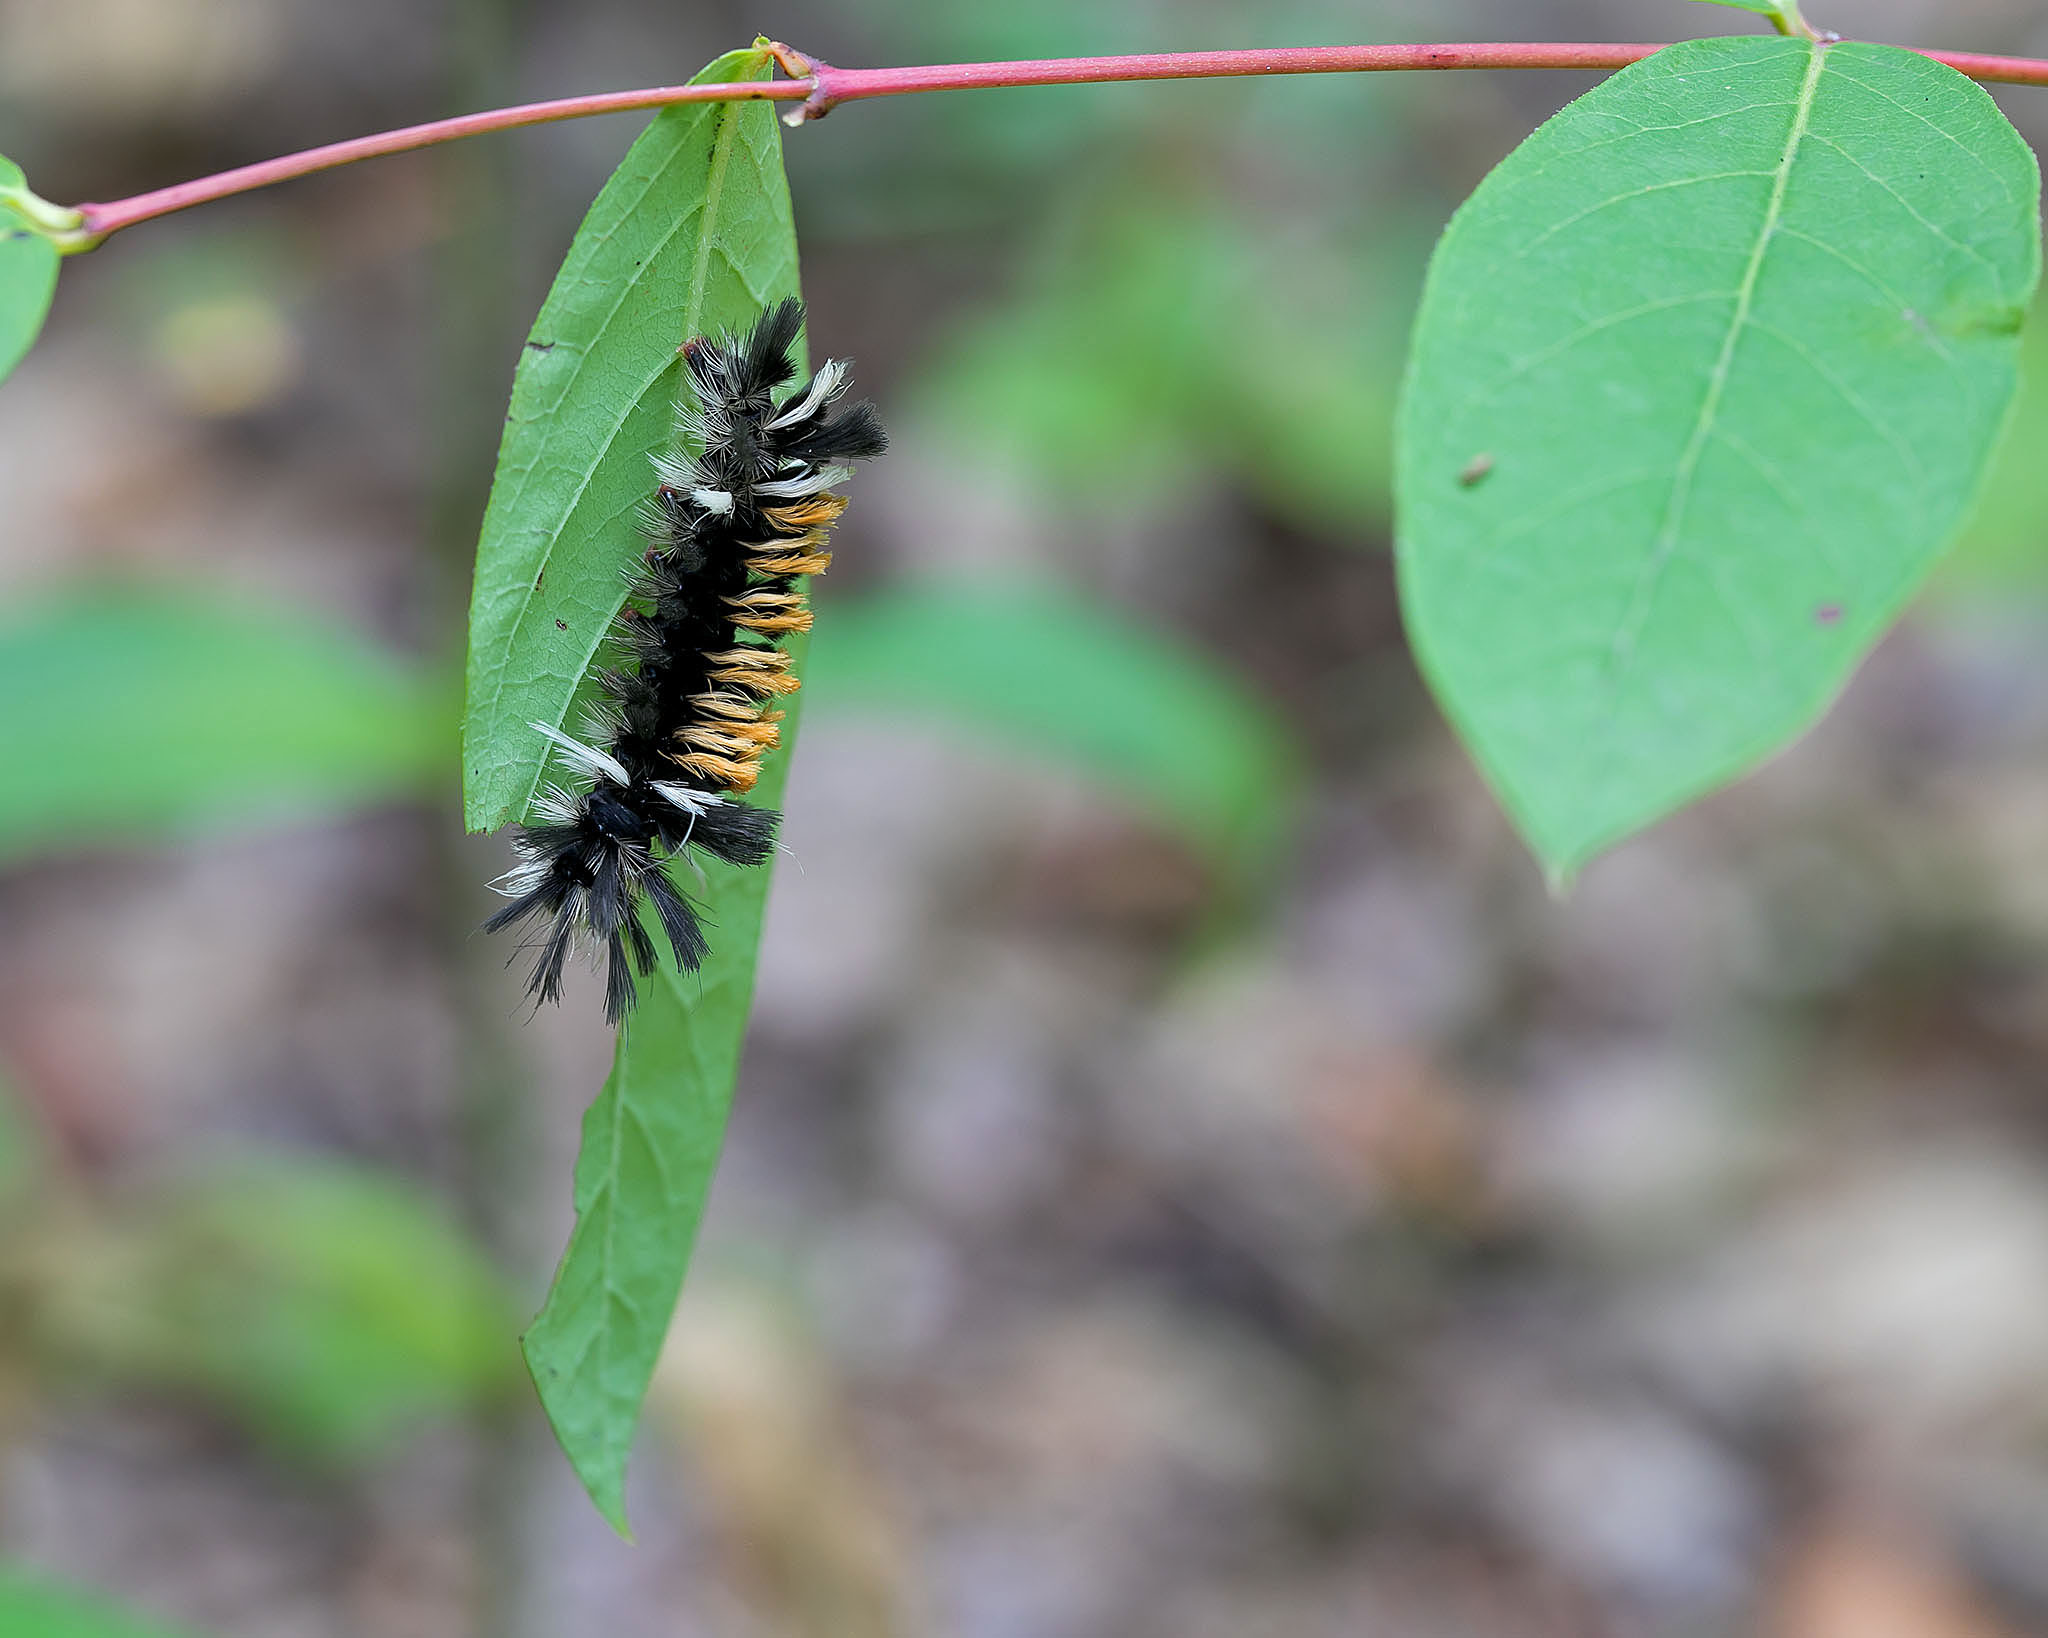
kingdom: Animalia
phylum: Arthropoda
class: Insecta
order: Lepidoptera
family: Erebidae
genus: Euchaetes
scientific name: Euchaetes egle
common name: Milkweed tussock moth
